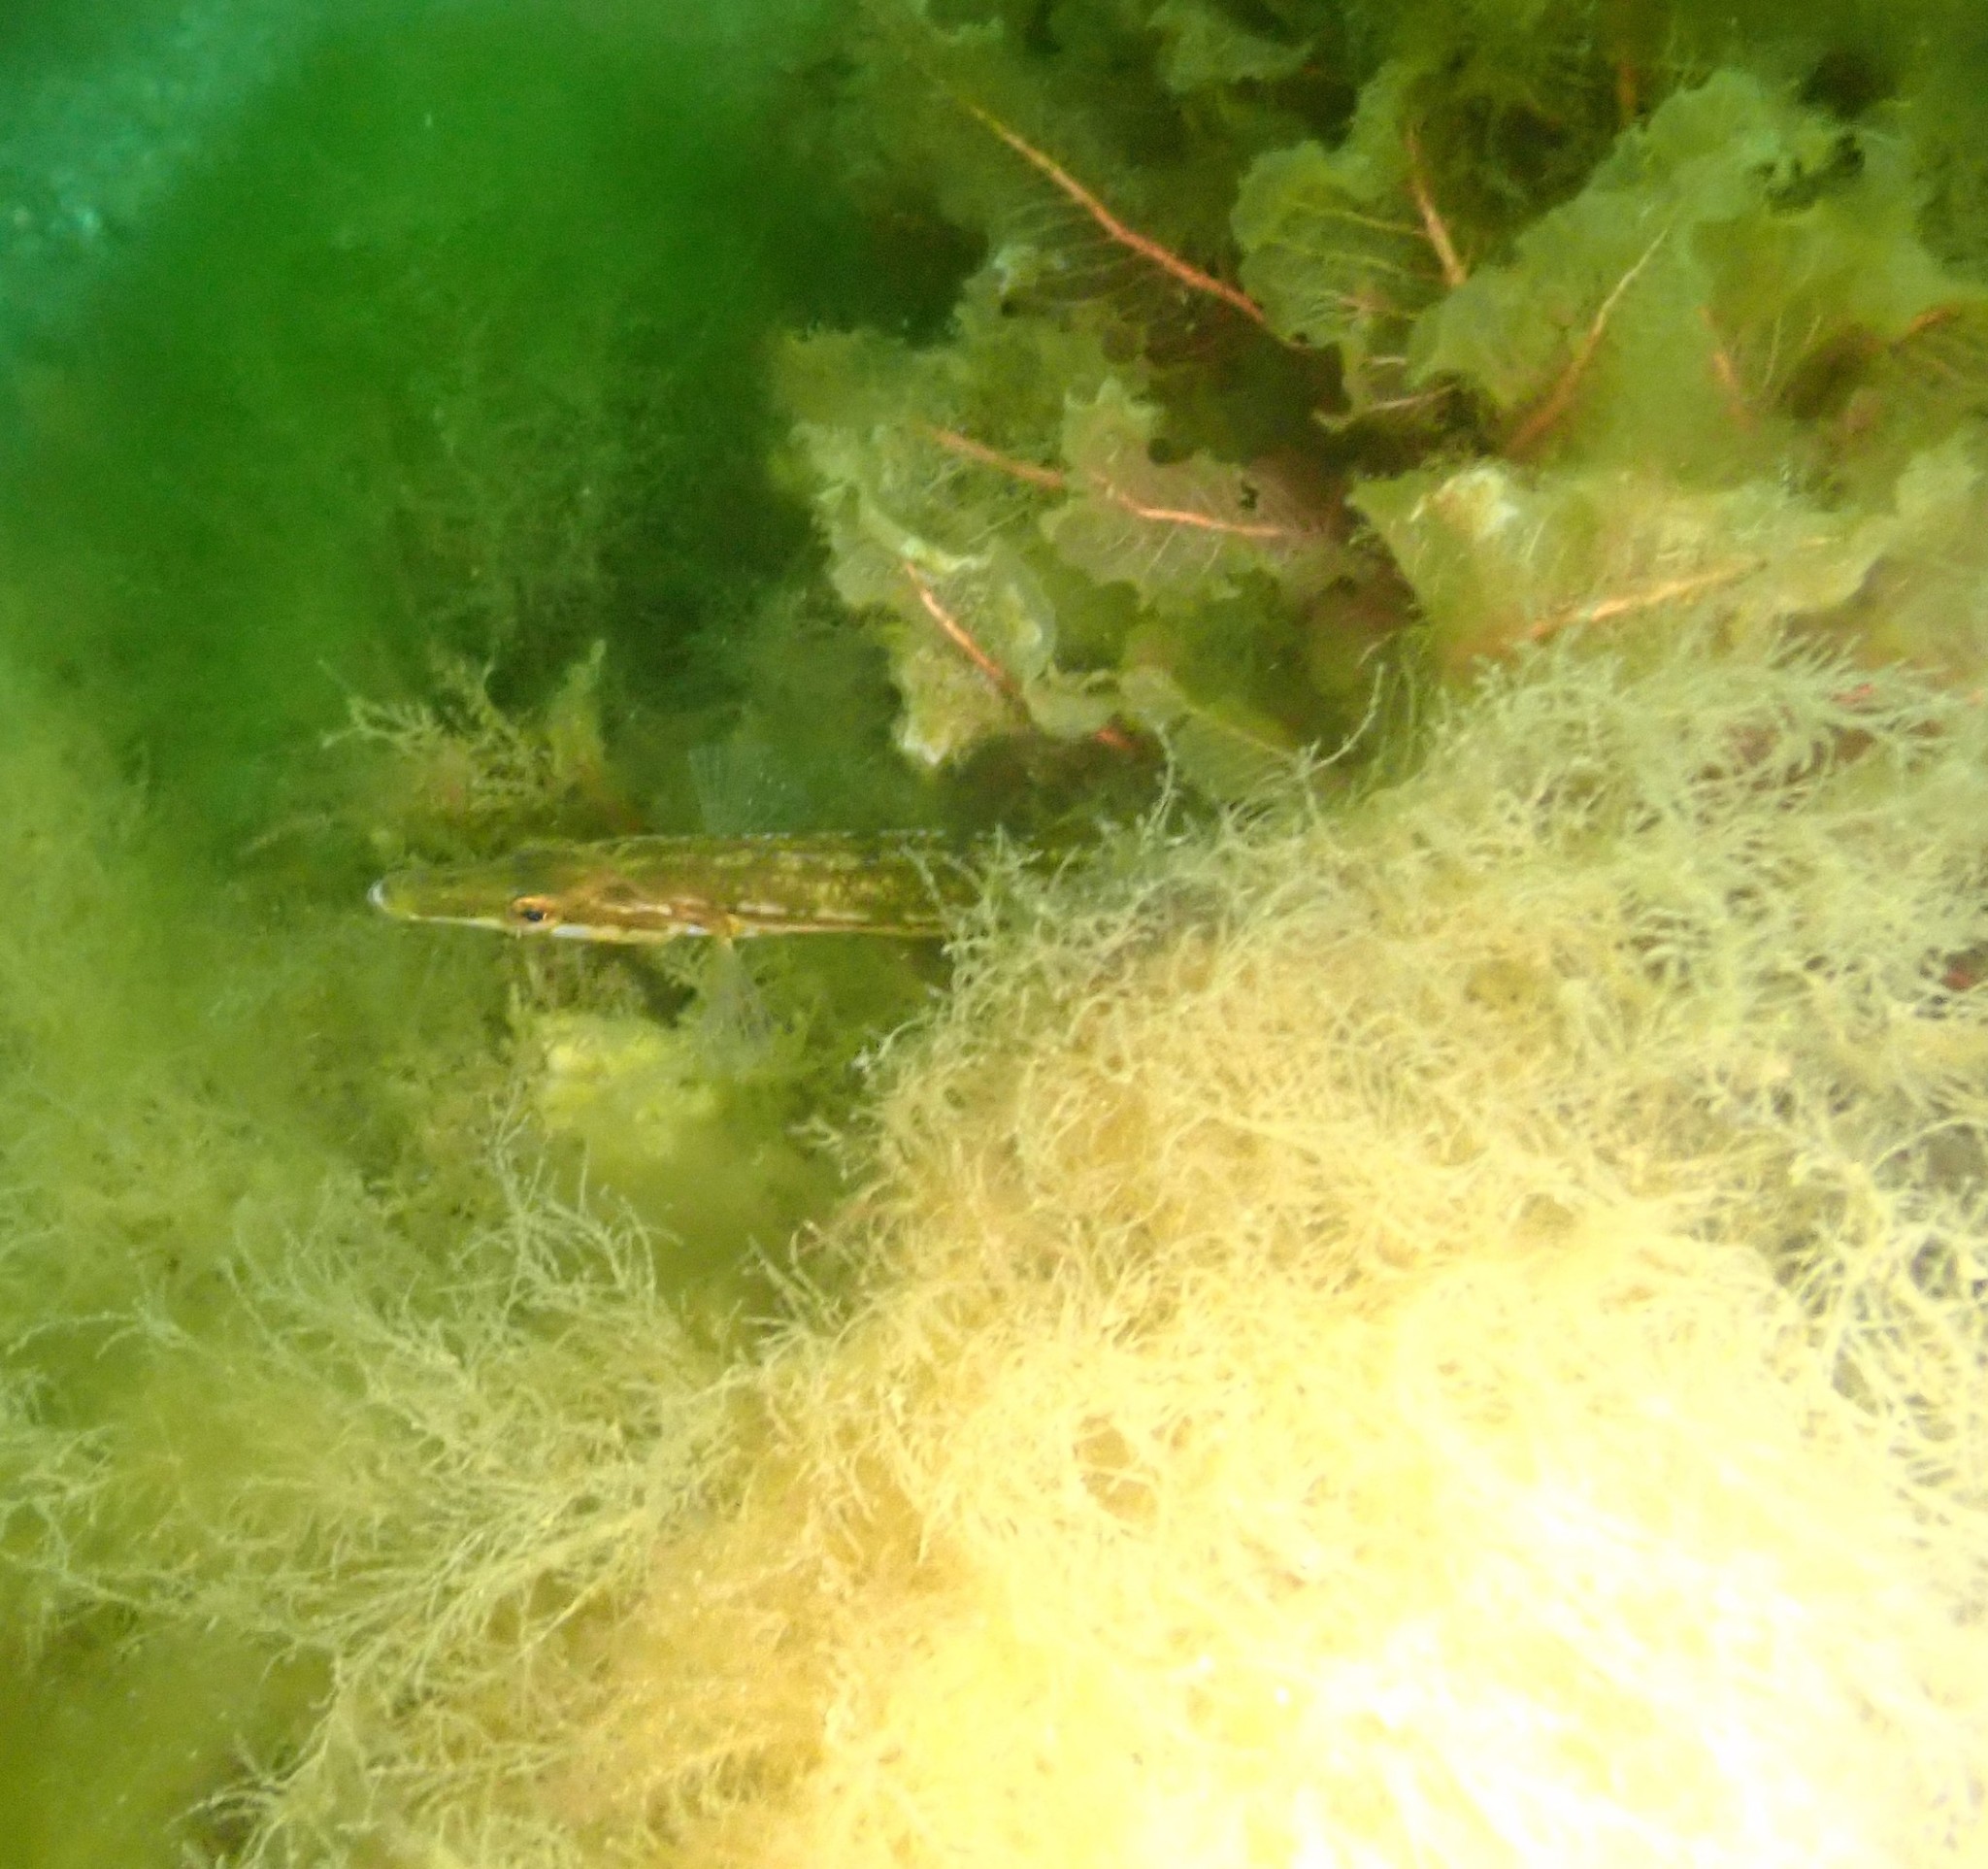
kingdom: Animalia
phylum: Chordata
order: Gasterosteiformes
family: Gasterosteidae
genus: Spinachia
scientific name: Spinachia spinachia
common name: Fifteen-spined stickleback
